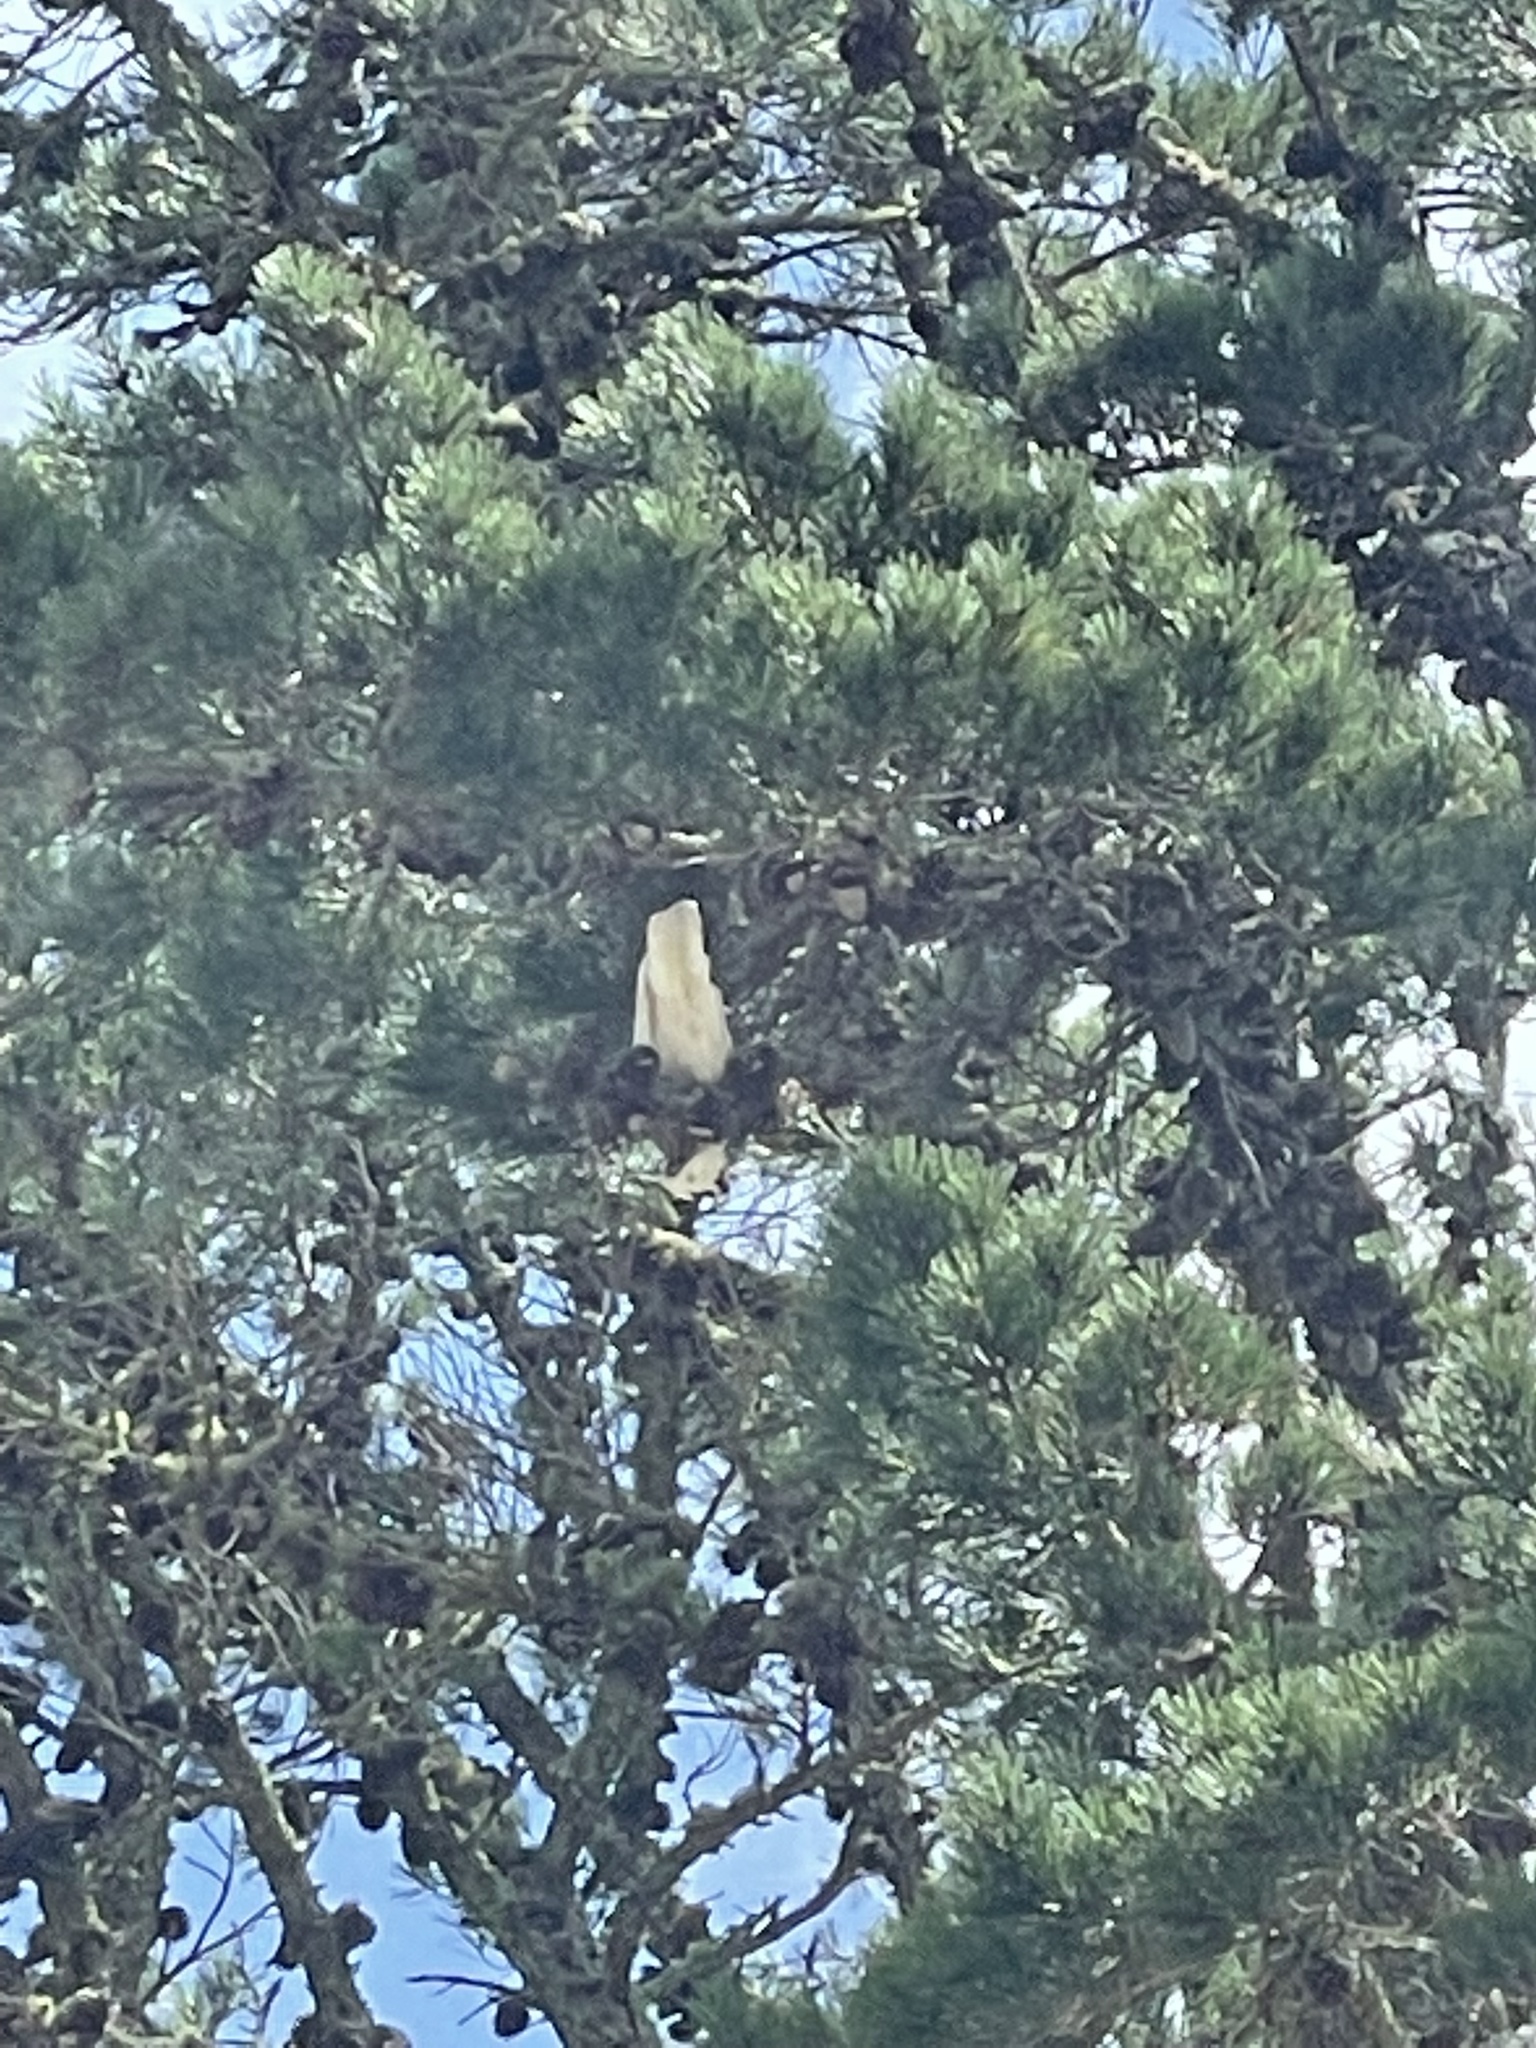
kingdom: Animalia
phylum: Chordata
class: Aves
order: Psittaciformes
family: Psittacidae
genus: Cacatua
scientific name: Cacatua galerita
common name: Sulphur-crested cockatoo
